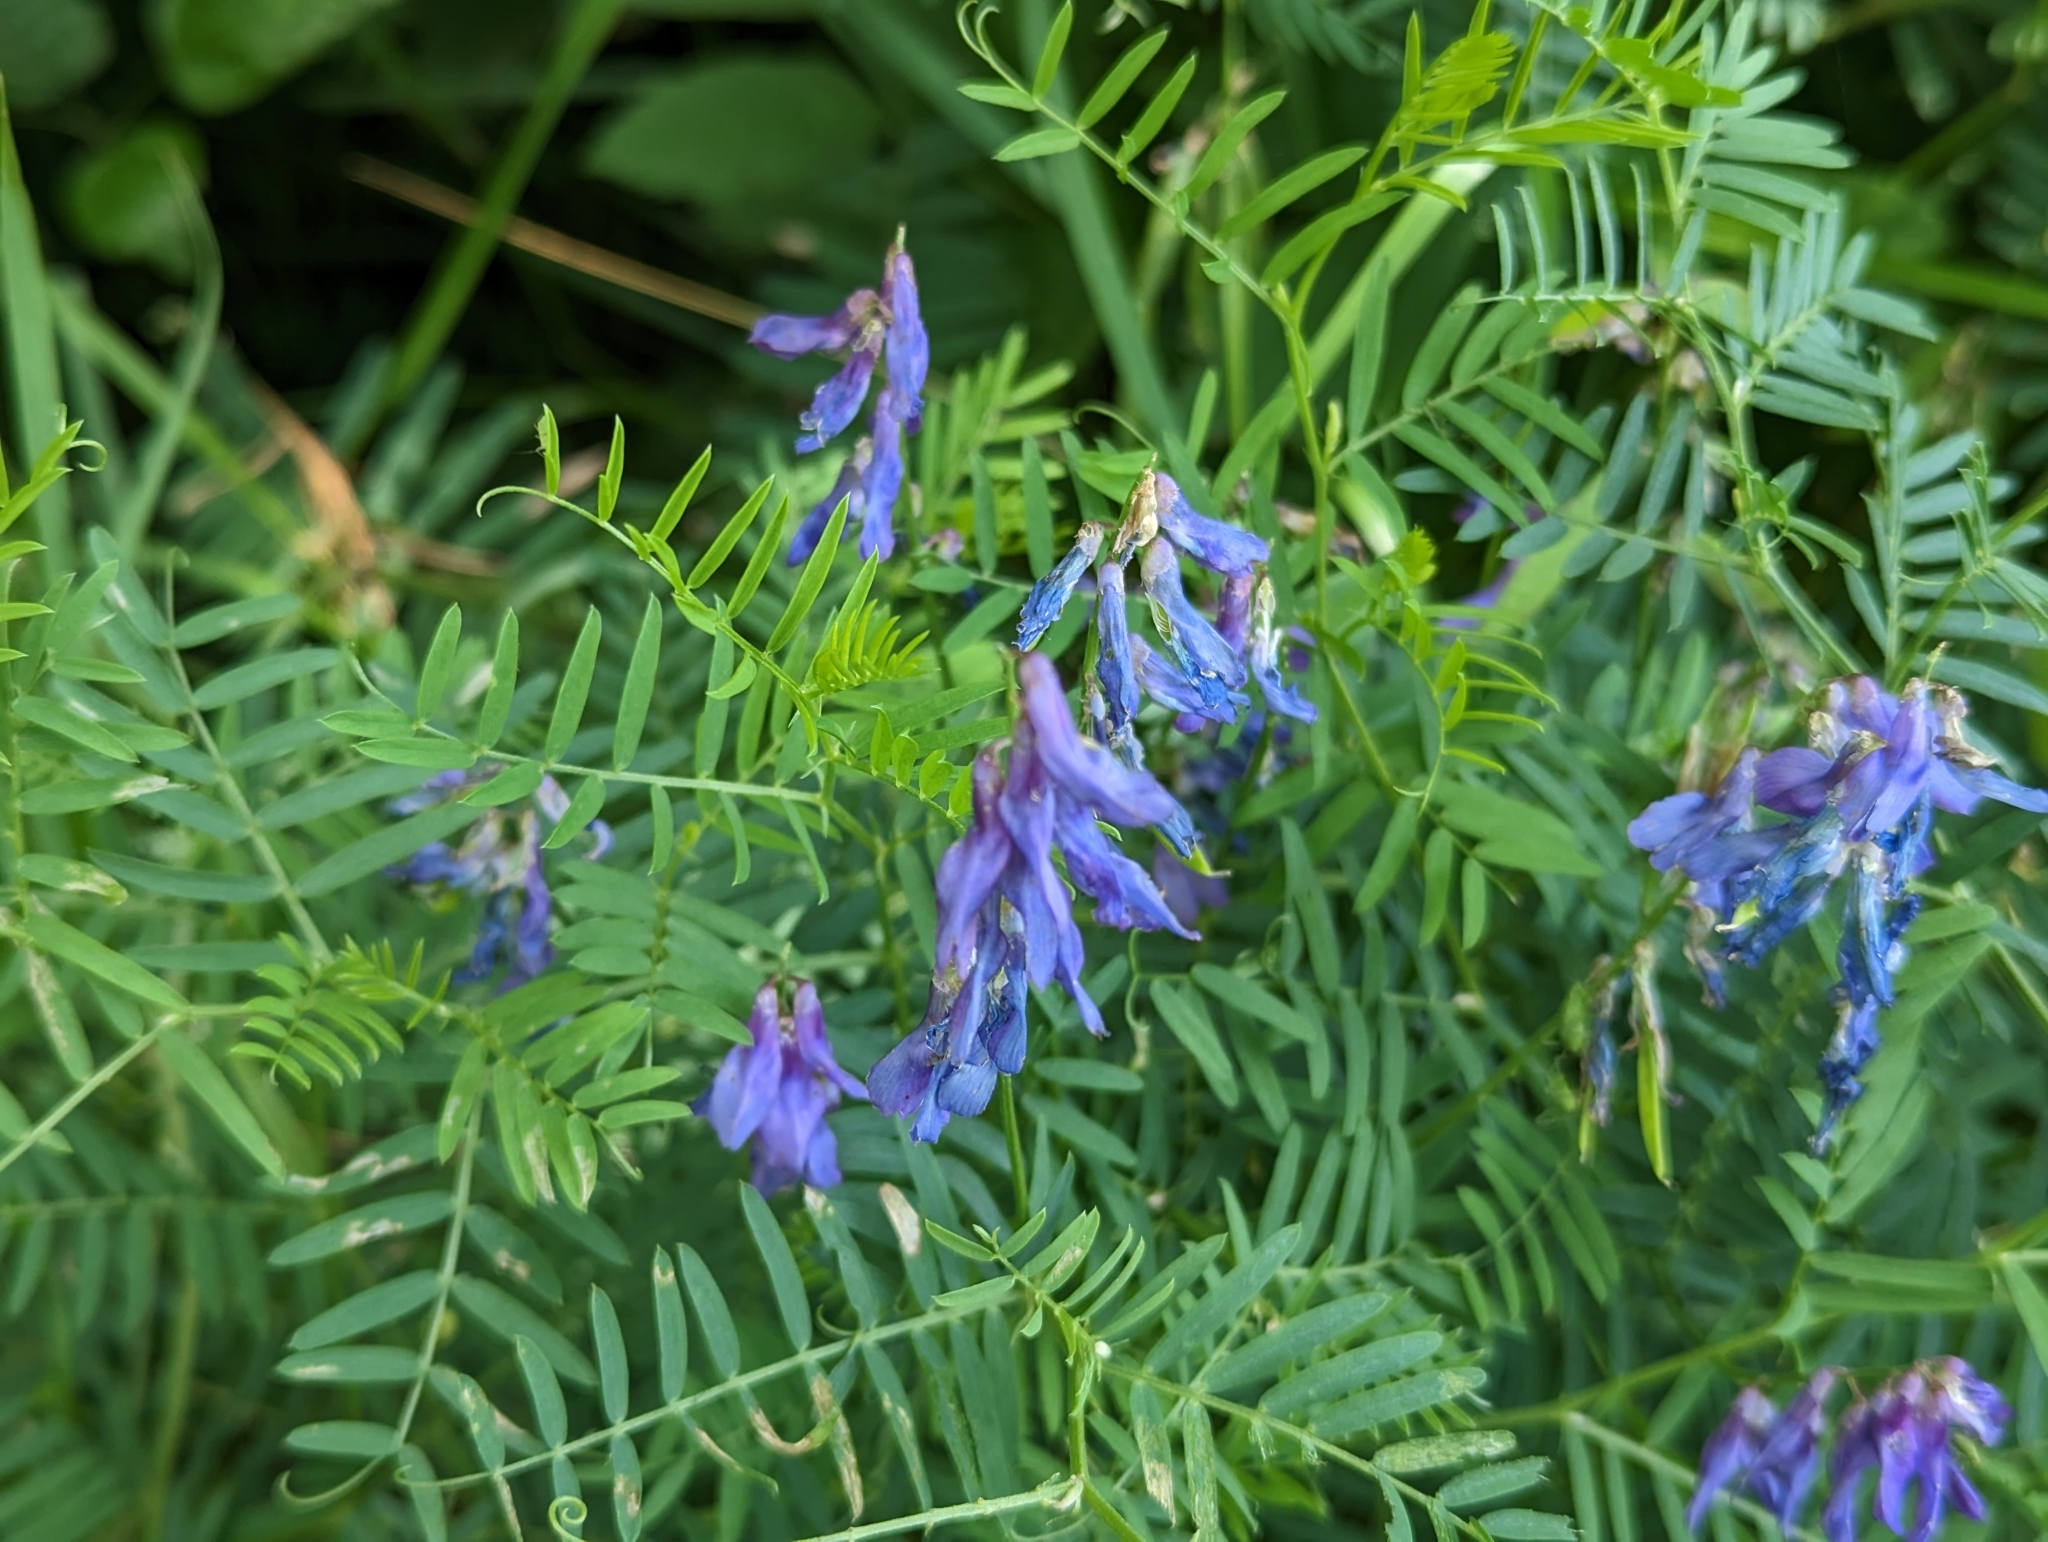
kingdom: Plantae
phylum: Tracheophyta
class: Magnoliopsida
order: Fabales
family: Fabaceae
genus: Vicia
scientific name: Vicia cracca
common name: Bird vetch
